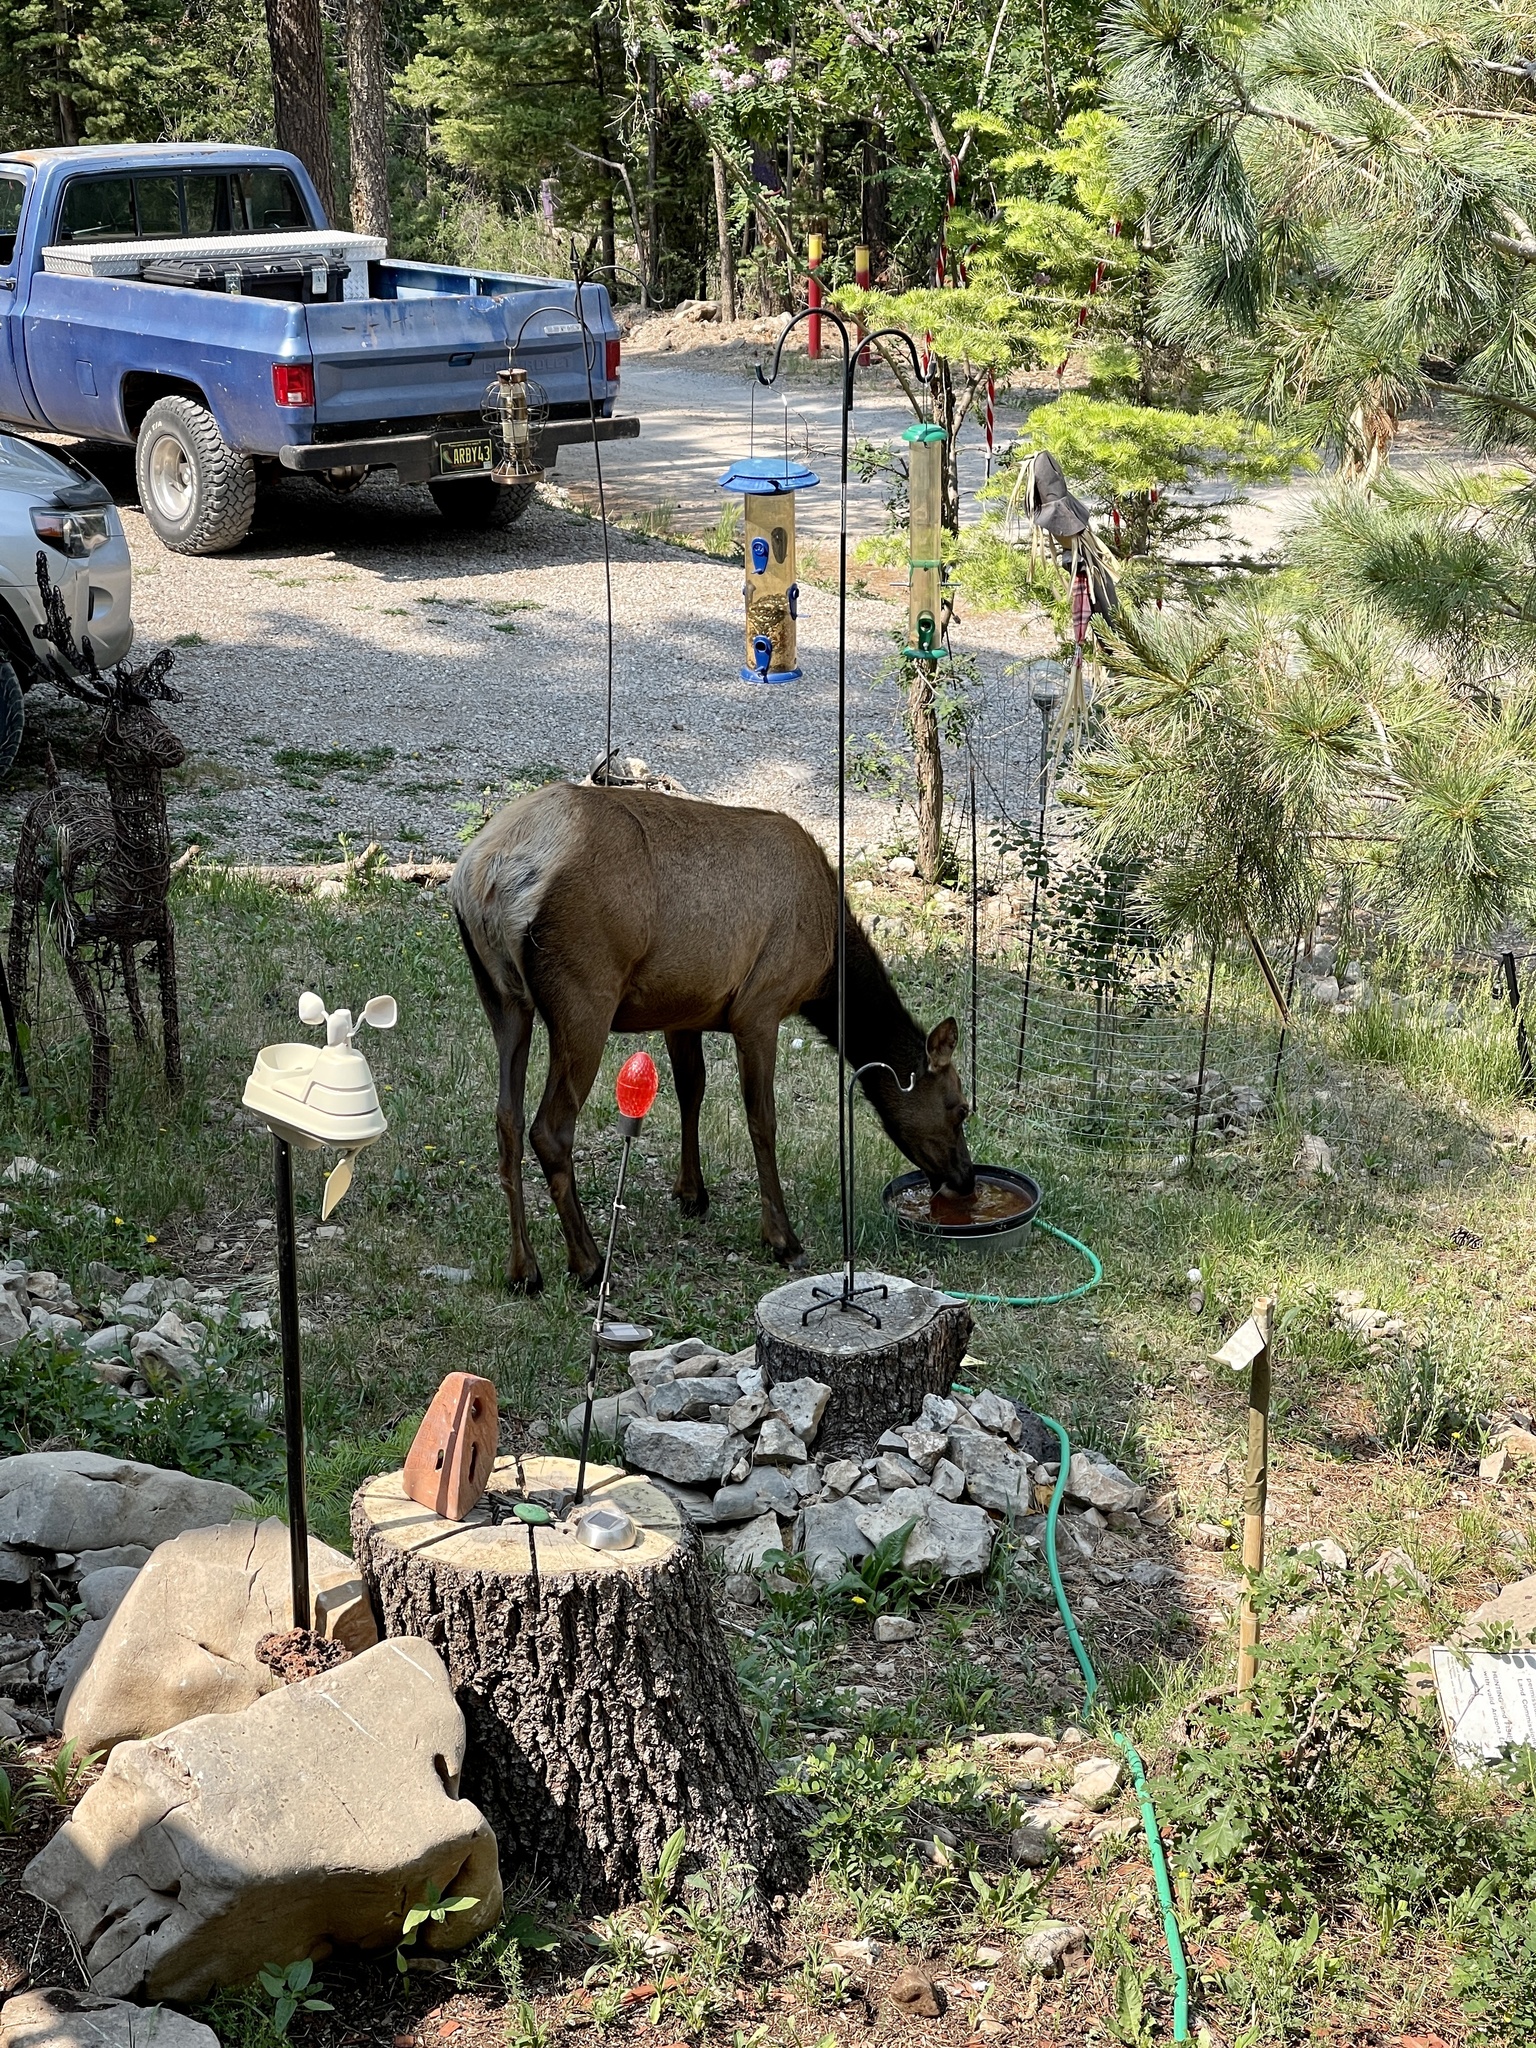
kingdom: Animalia
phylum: Chordata
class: Mammalia
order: Artiodactyla
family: Cervidae
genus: Cervus
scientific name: Cervus elaphus
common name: Red deer
